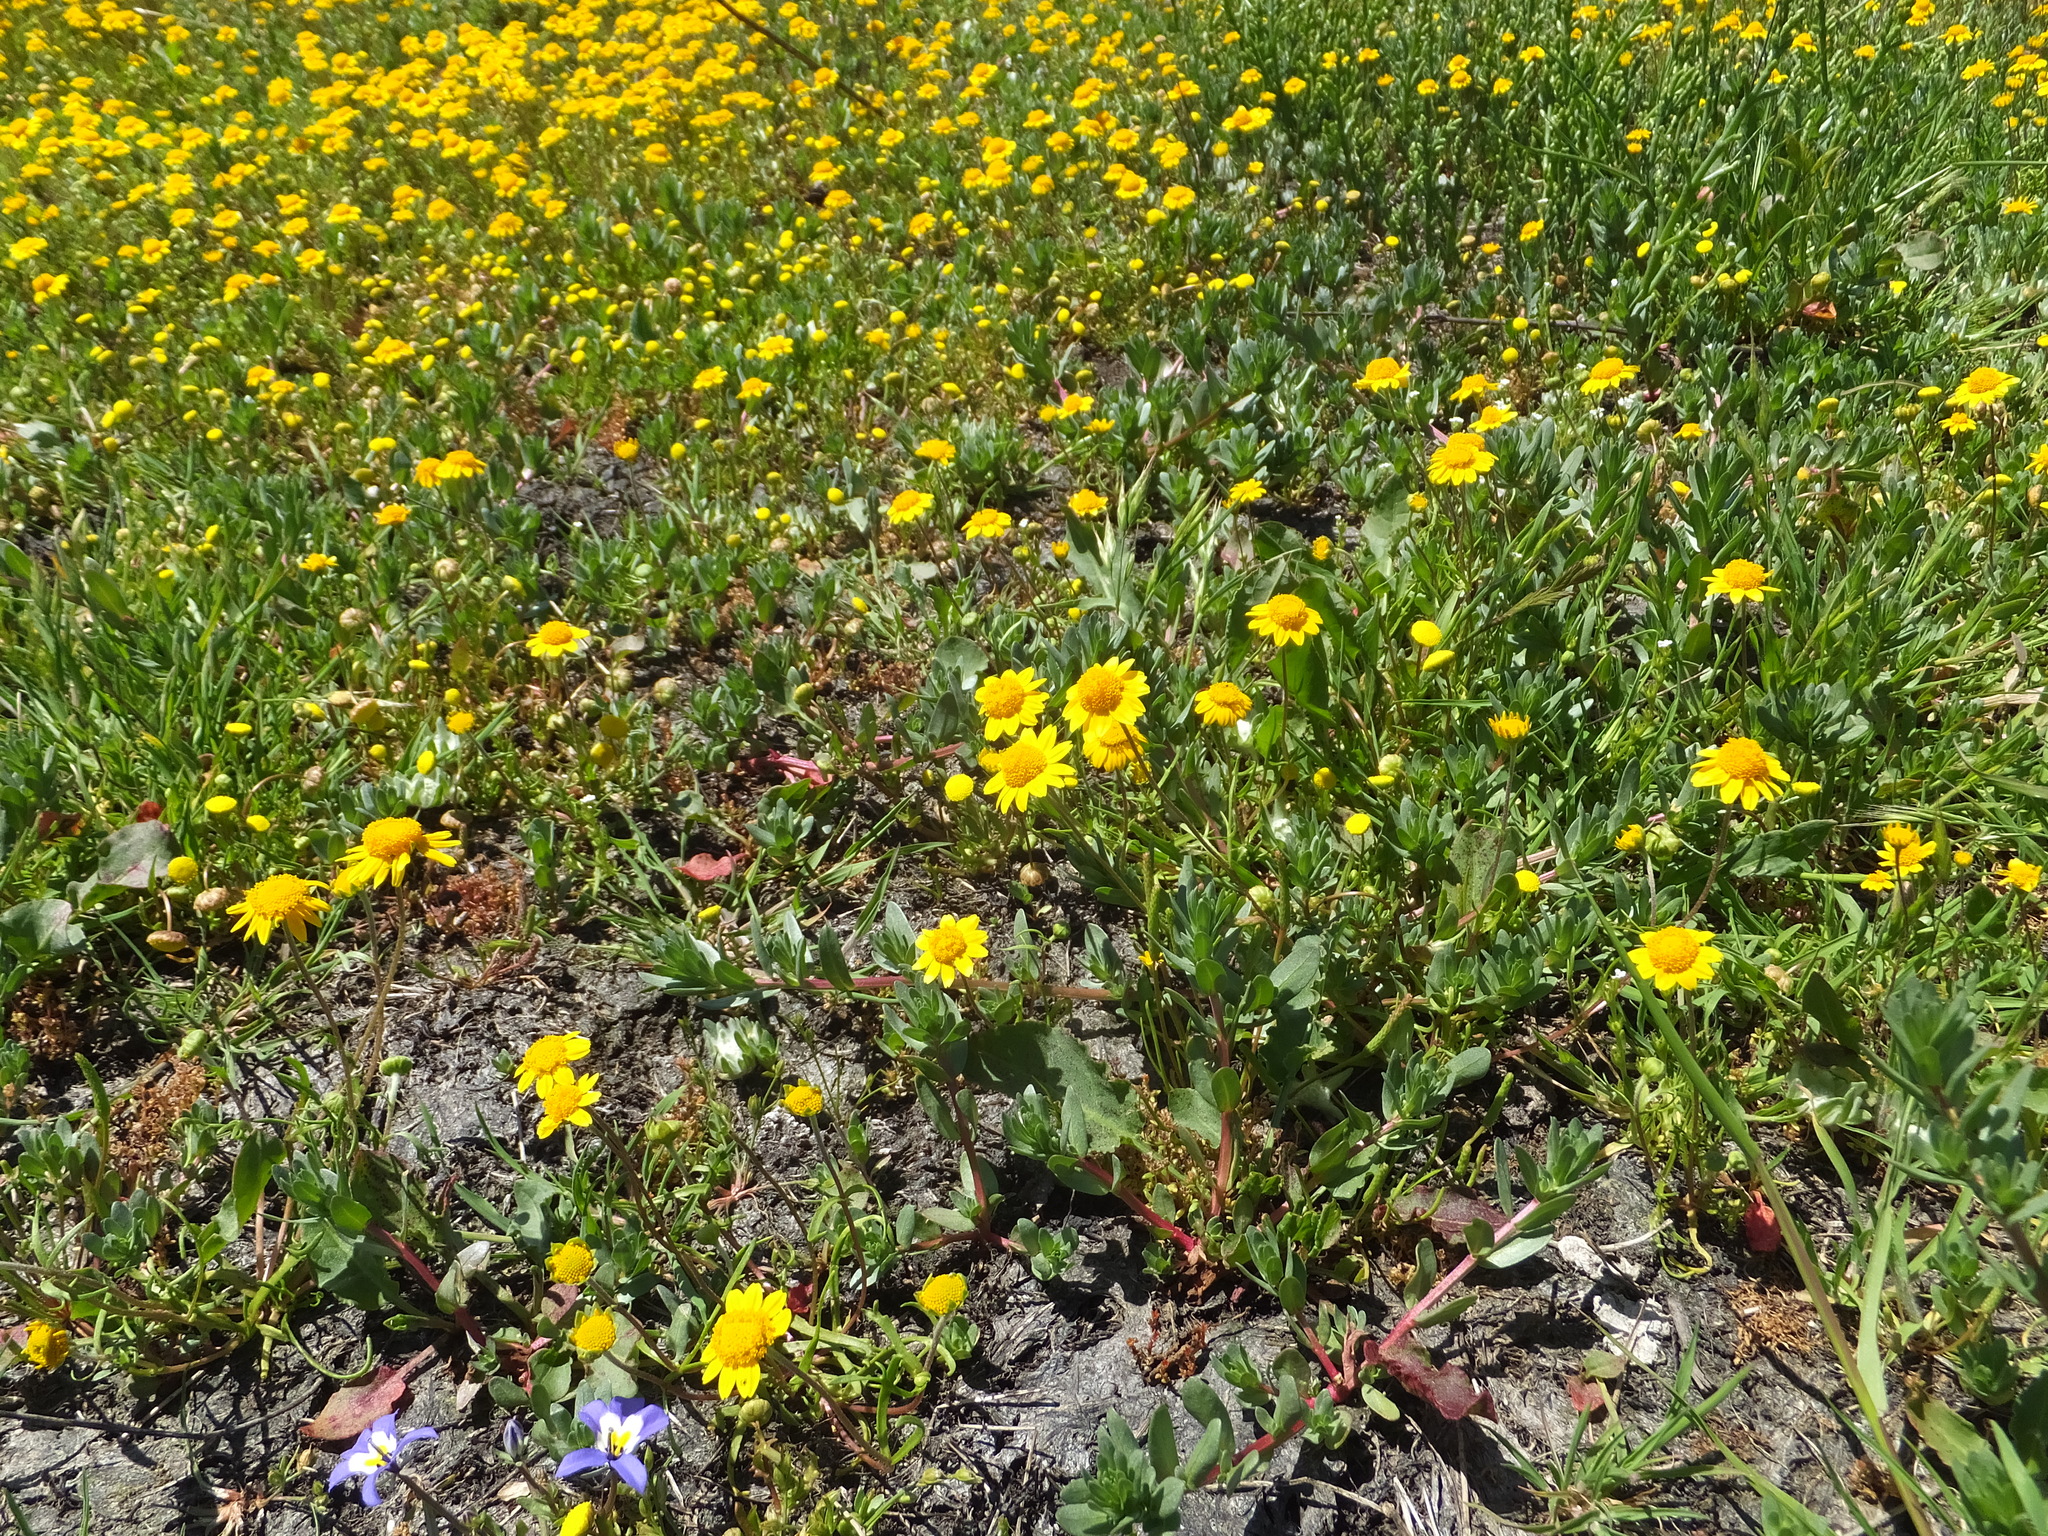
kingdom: Plantae
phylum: Tracheophyta
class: Magnoliopsida
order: Asterales
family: Asteraceae
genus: Lasthenia
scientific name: Lasthenia conjugens
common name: Contra costa goldfields
